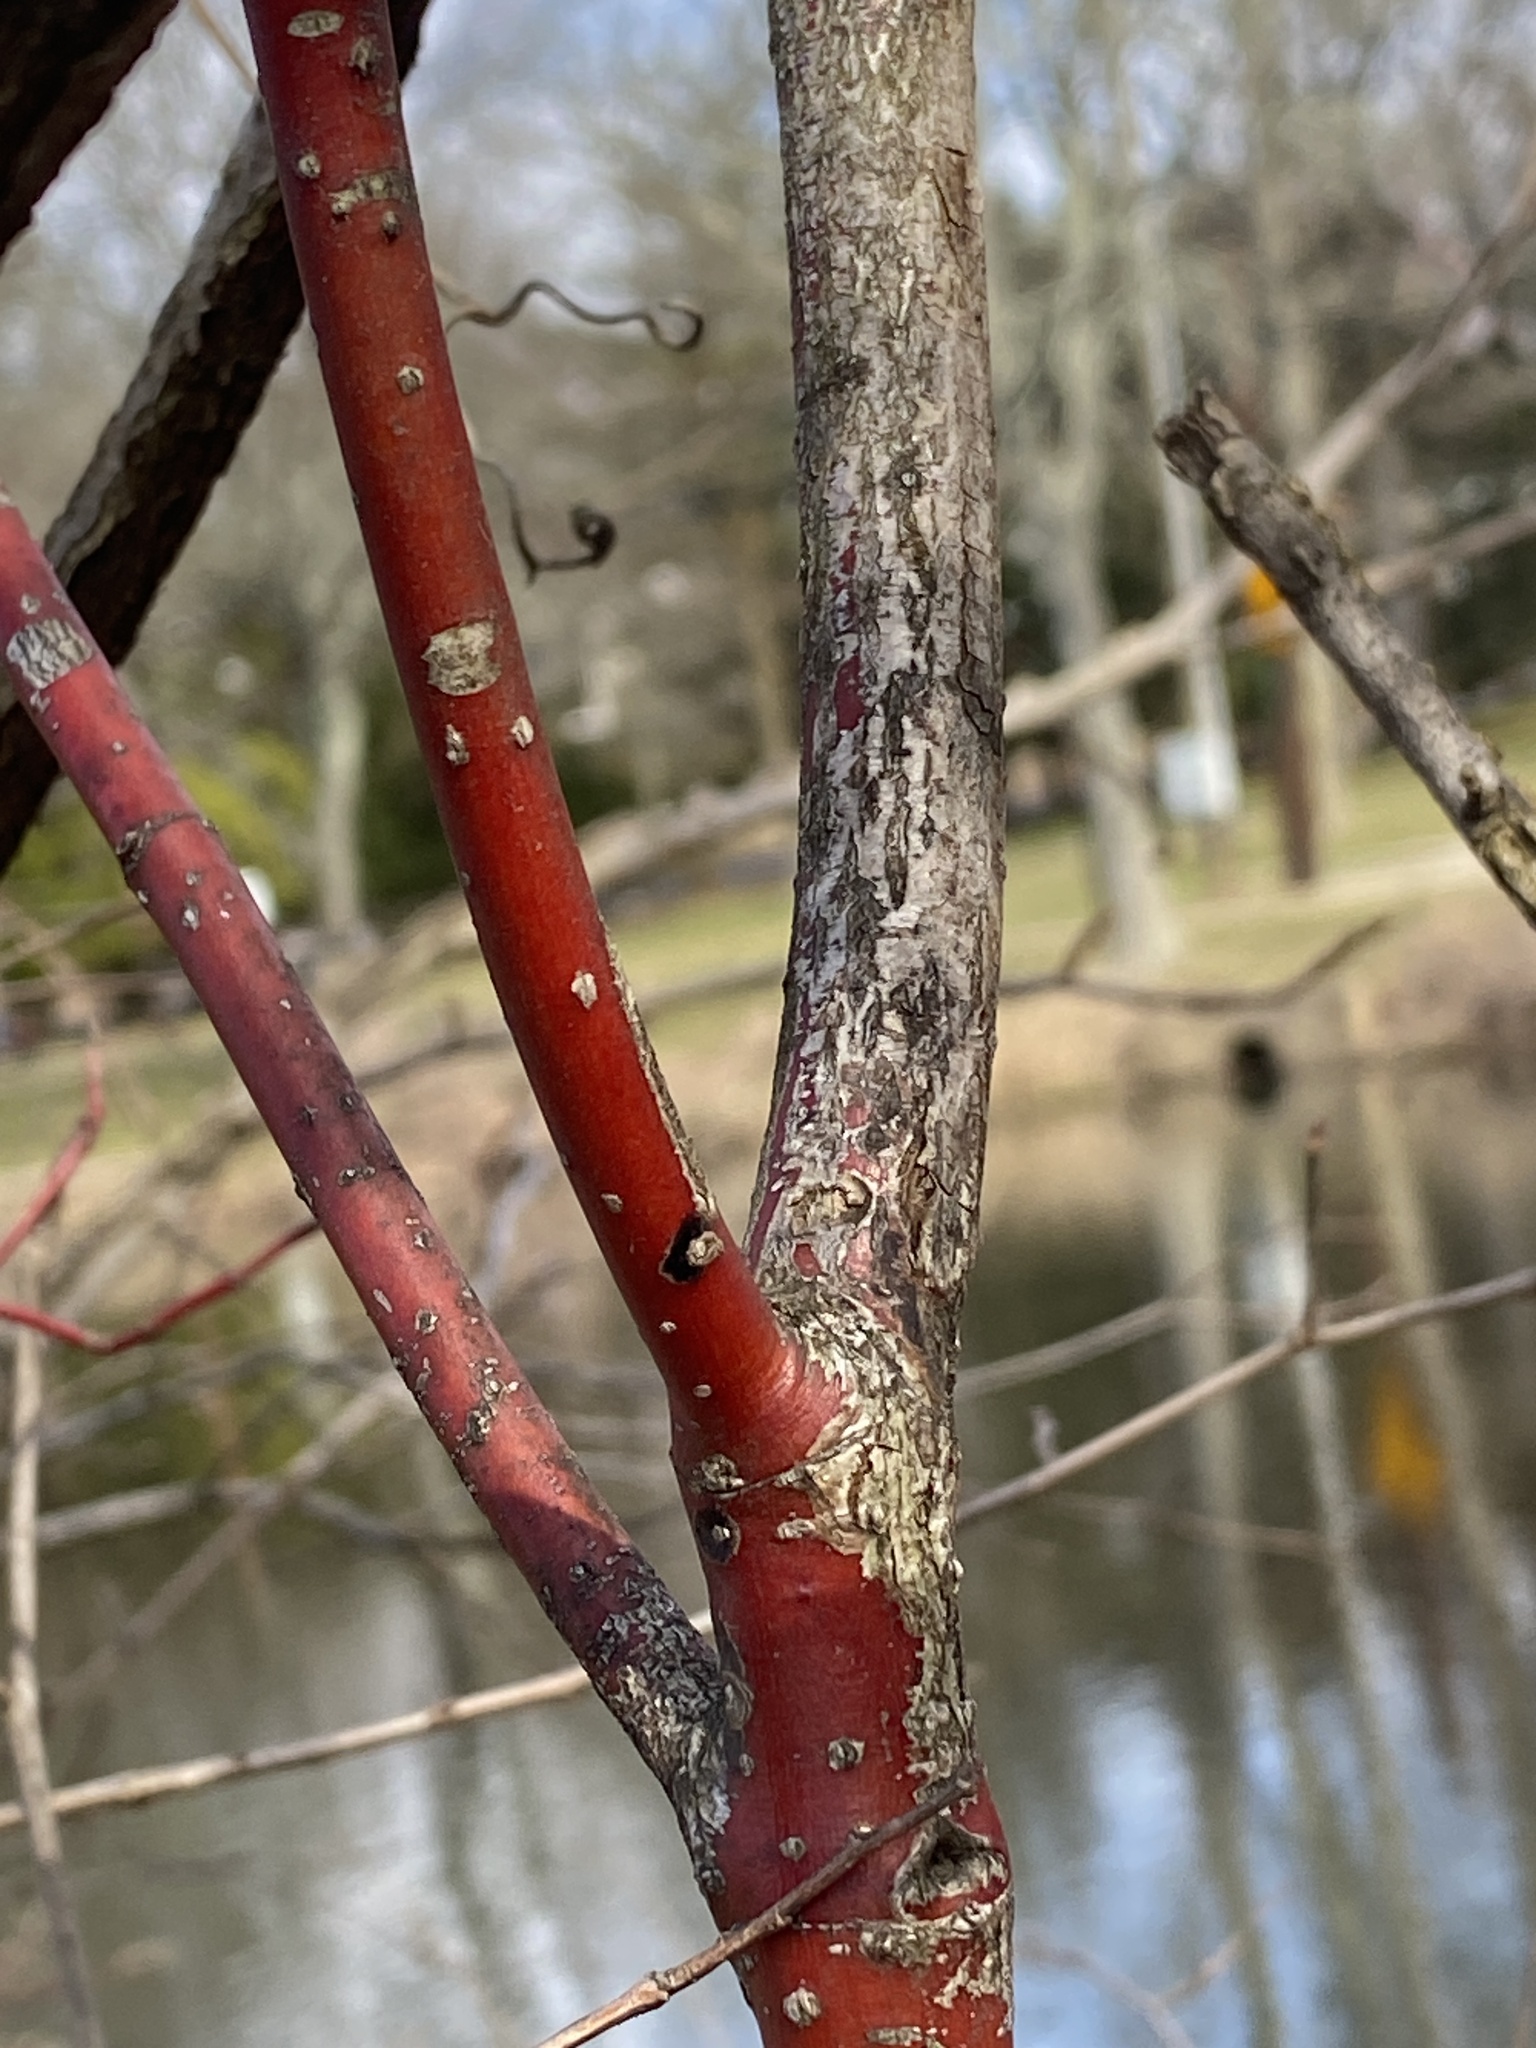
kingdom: Plantae
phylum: Tracheophyta
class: Magnoliopsida
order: Cornales
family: Cornaceae
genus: Cornus
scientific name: Cornus amomum
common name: Silky dogwood
